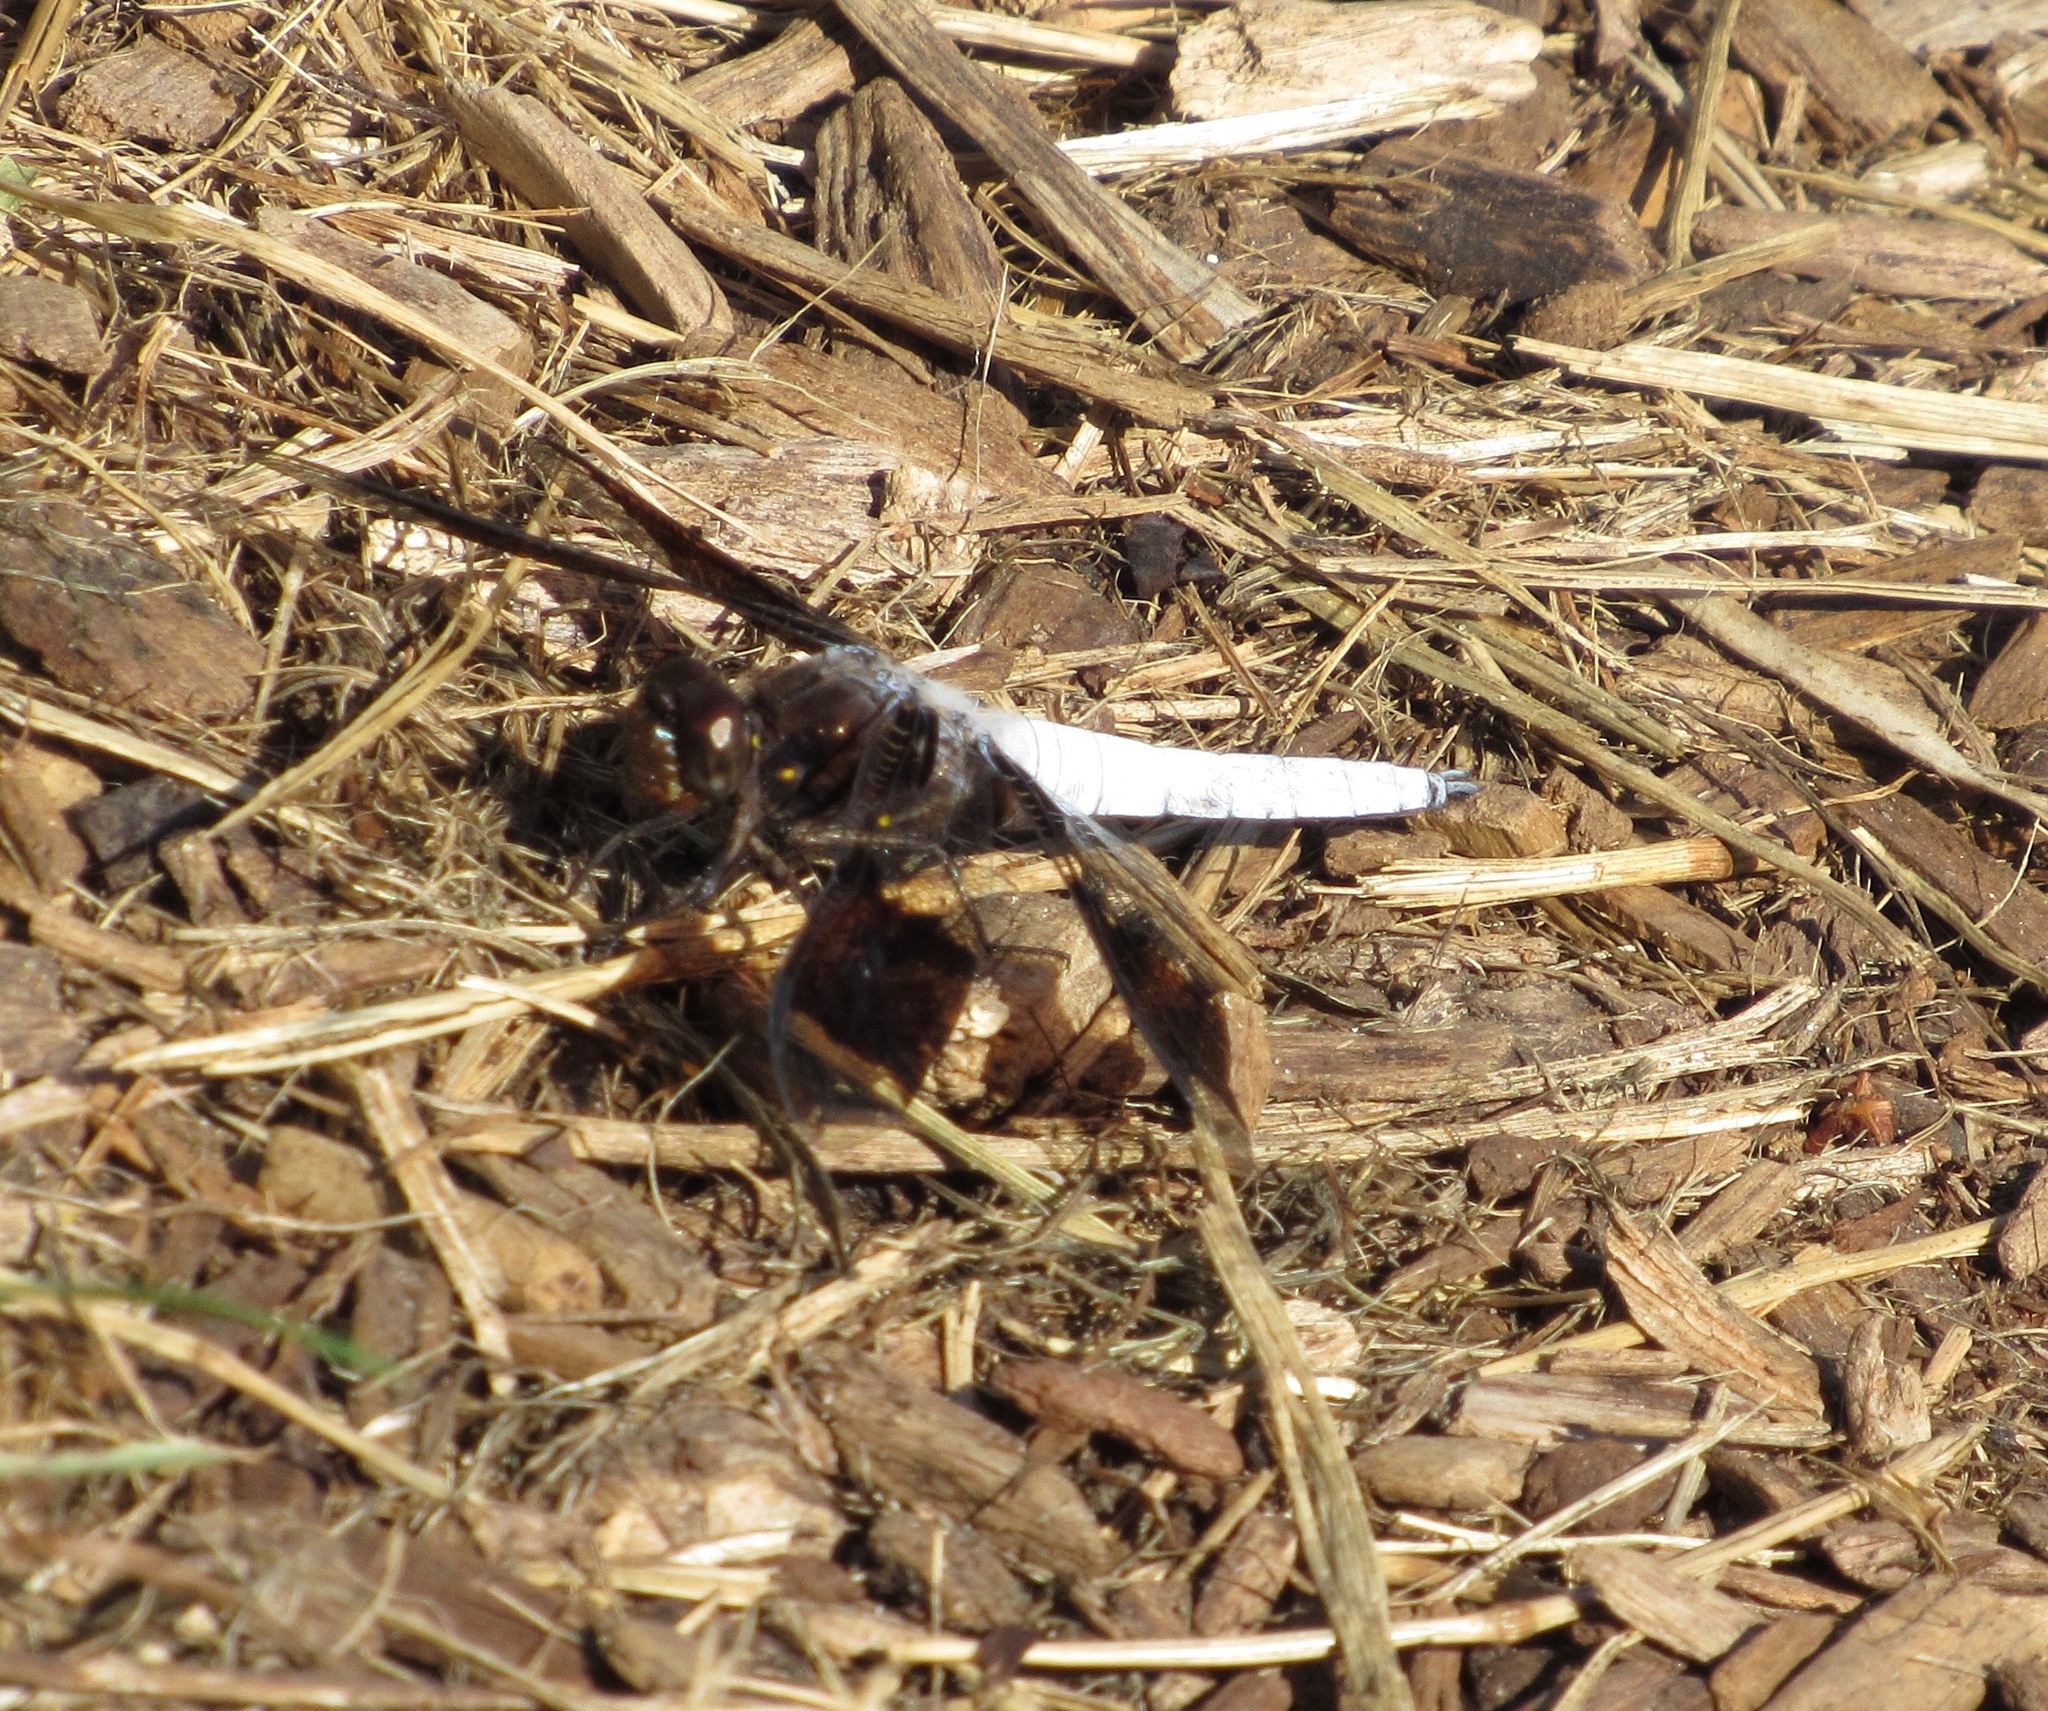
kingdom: Animalia
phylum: Arthropoda
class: Insecta
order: Odonata
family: Libellulidae
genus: Plathemis
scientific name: Plathemis lydia
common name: Common whitetail
